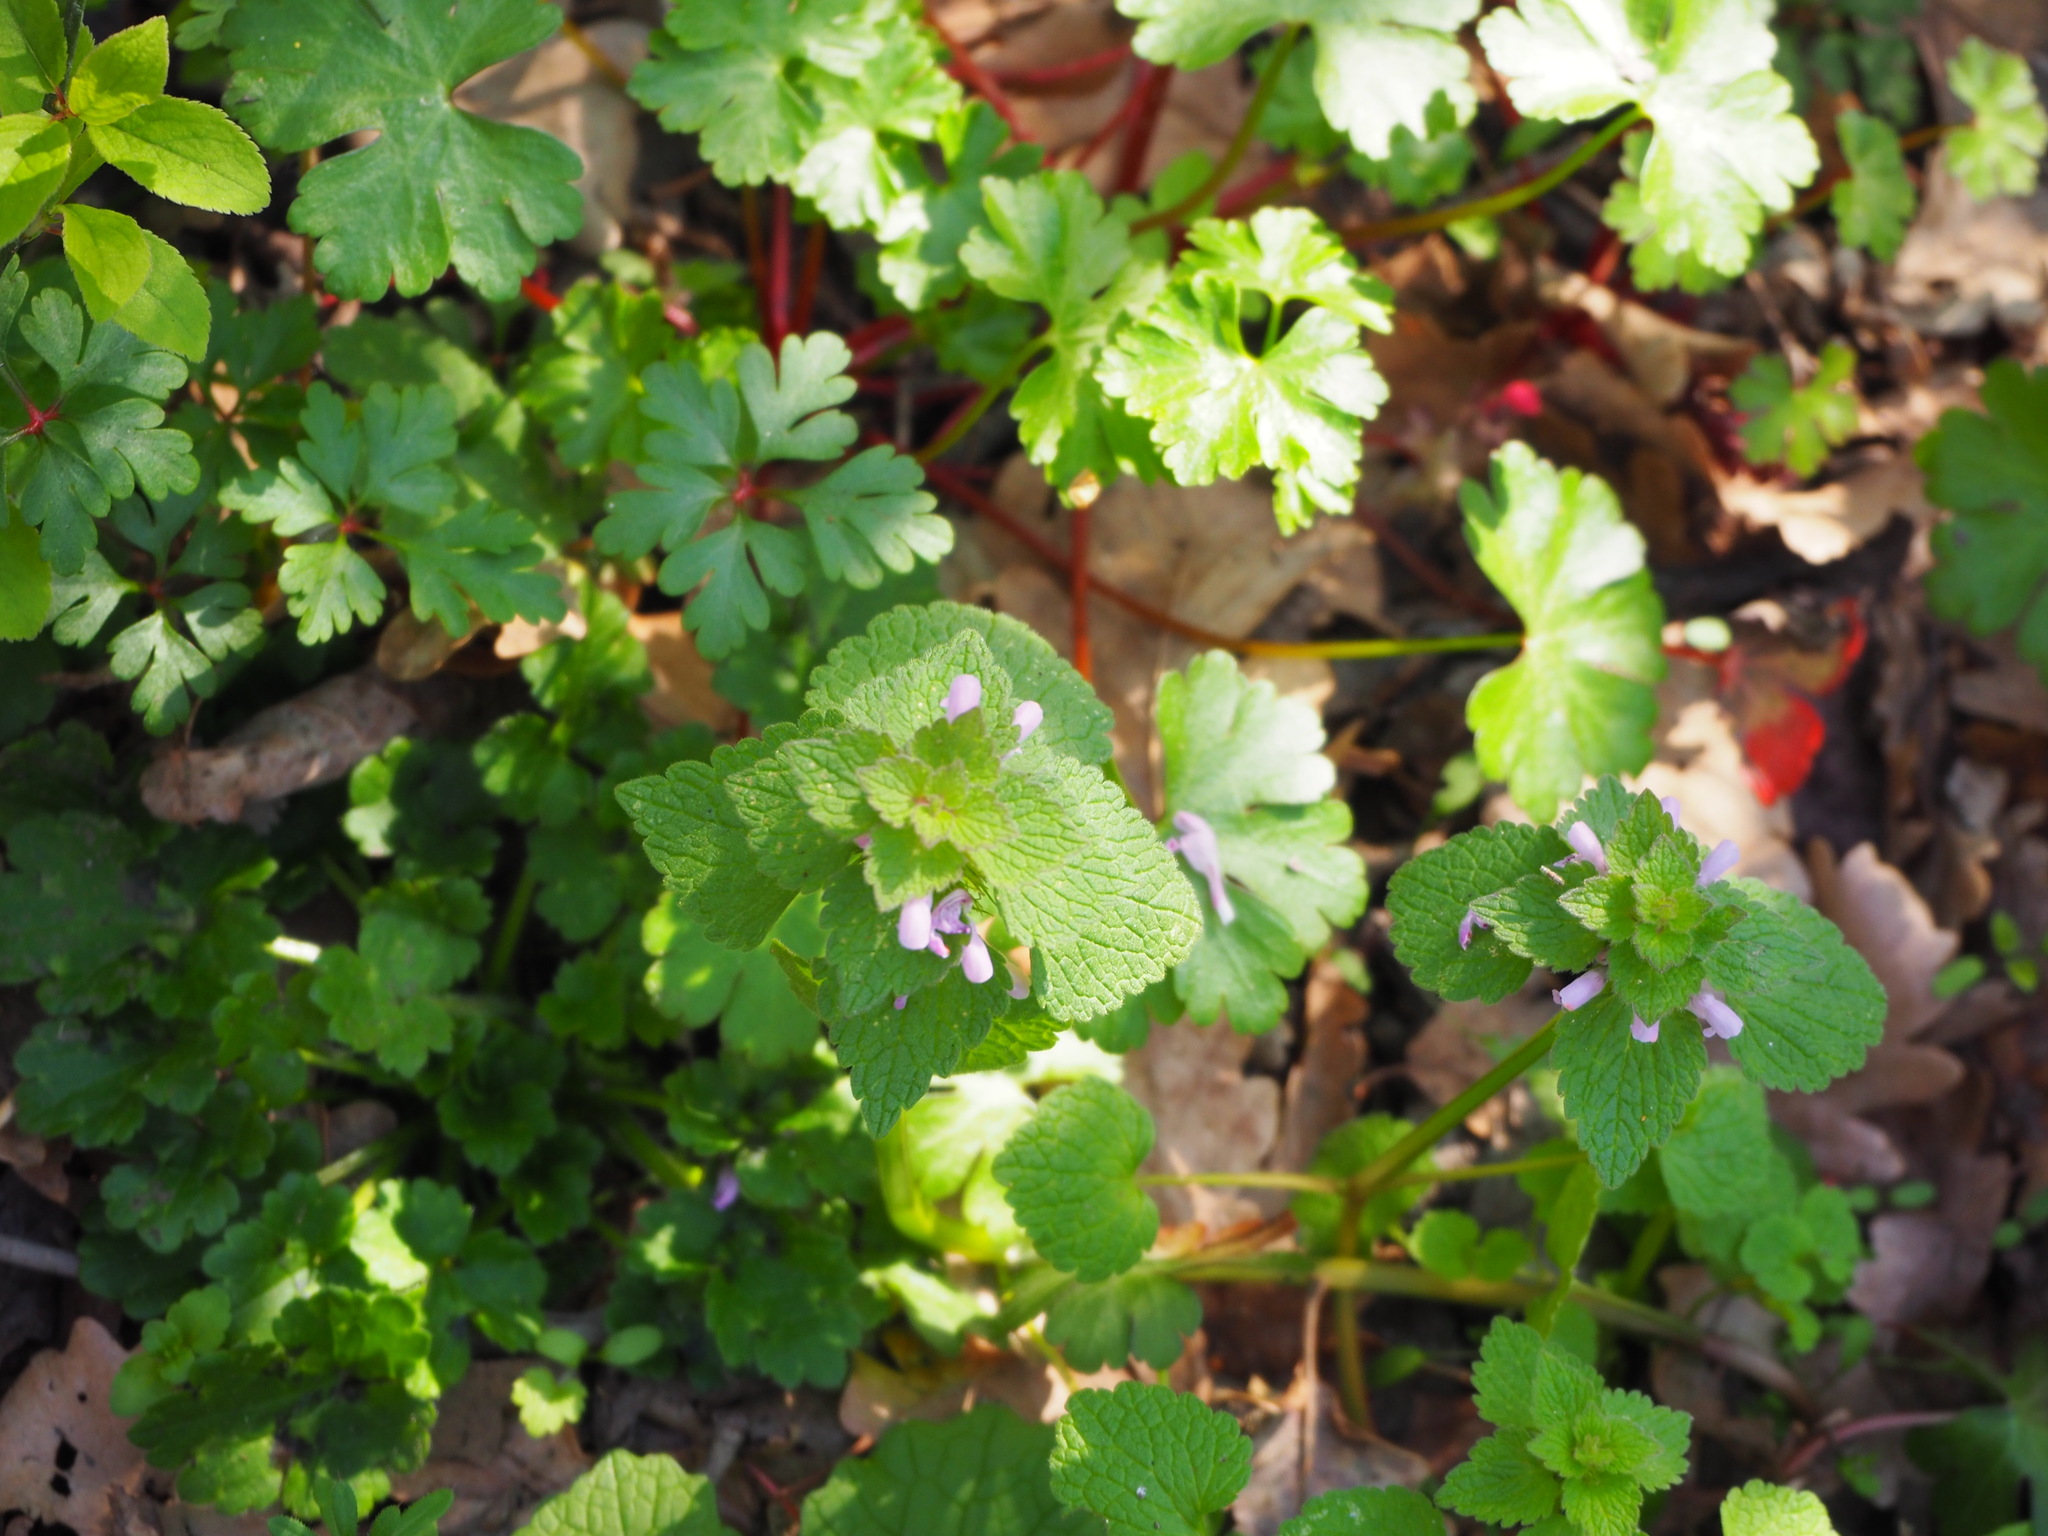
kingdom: Plantae
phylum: Tracheophyta
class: Magnoliopsida
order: Lamiales
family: Lamiaceae
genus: Lamium
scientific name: Lamium purpureum
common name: Red dead-nettle
